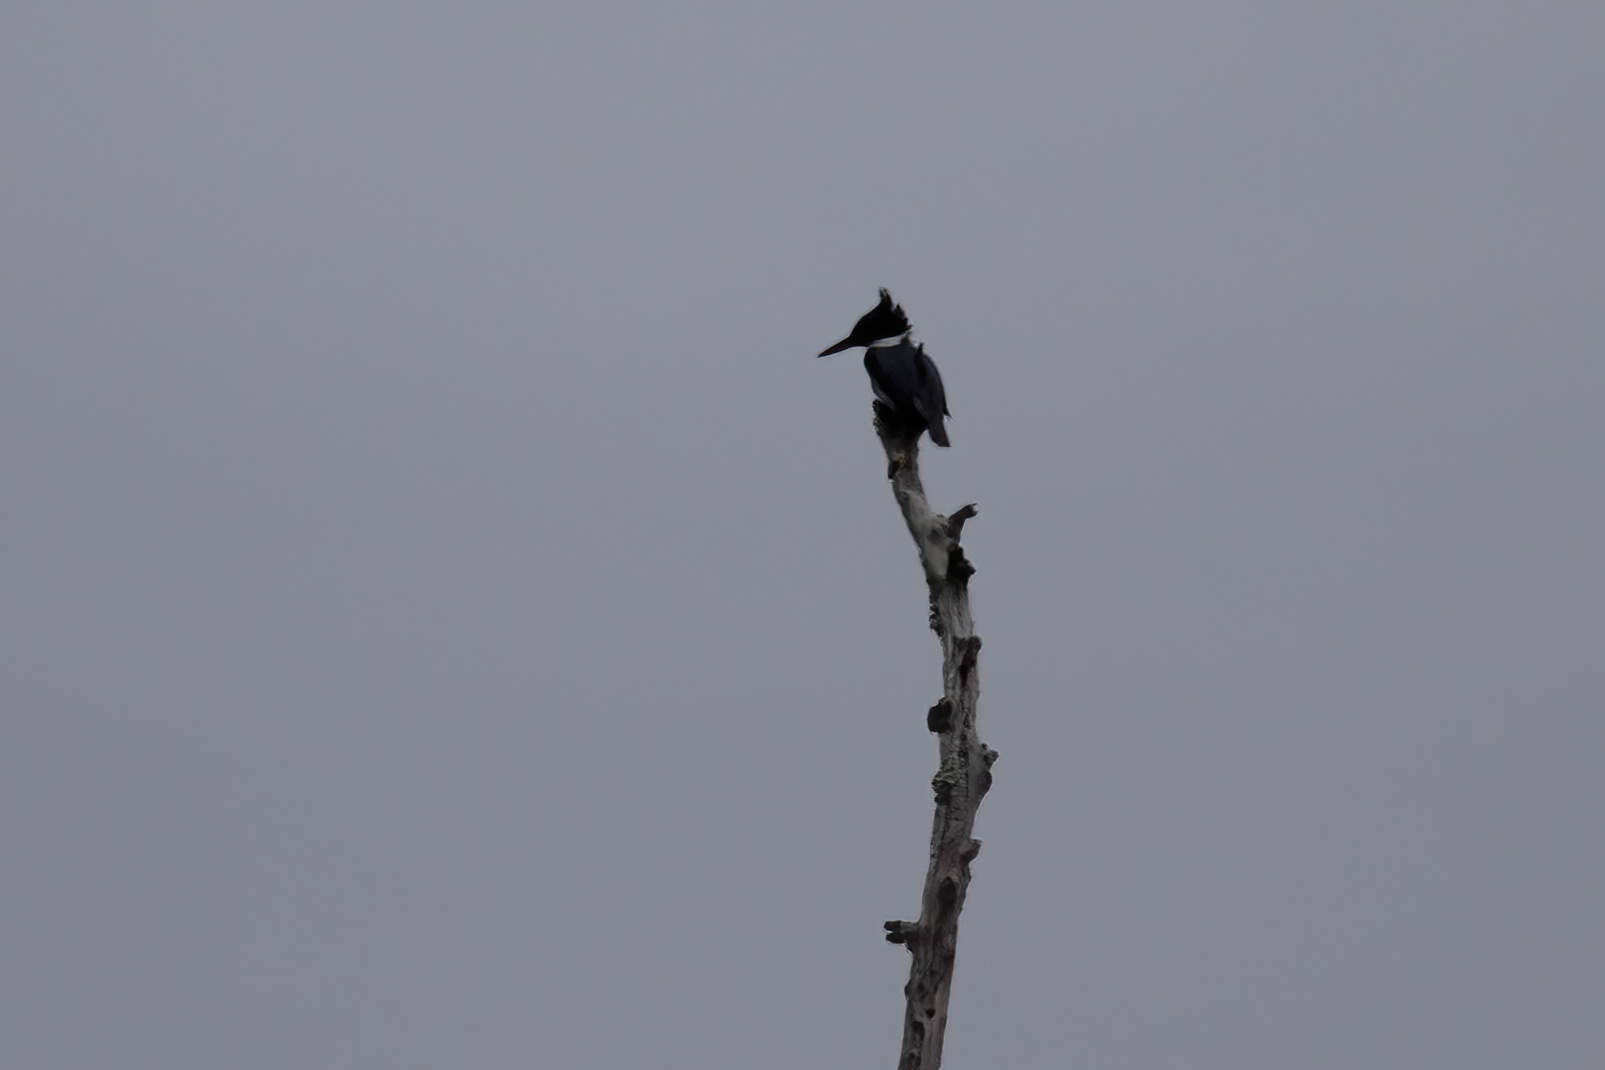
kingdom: Animalia
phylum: Chordata
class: Aves
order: Coraciiformes
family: Alcedinidae
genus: Megaceryle
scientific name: Megaceryle alcyon
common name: Belted kingfisher
